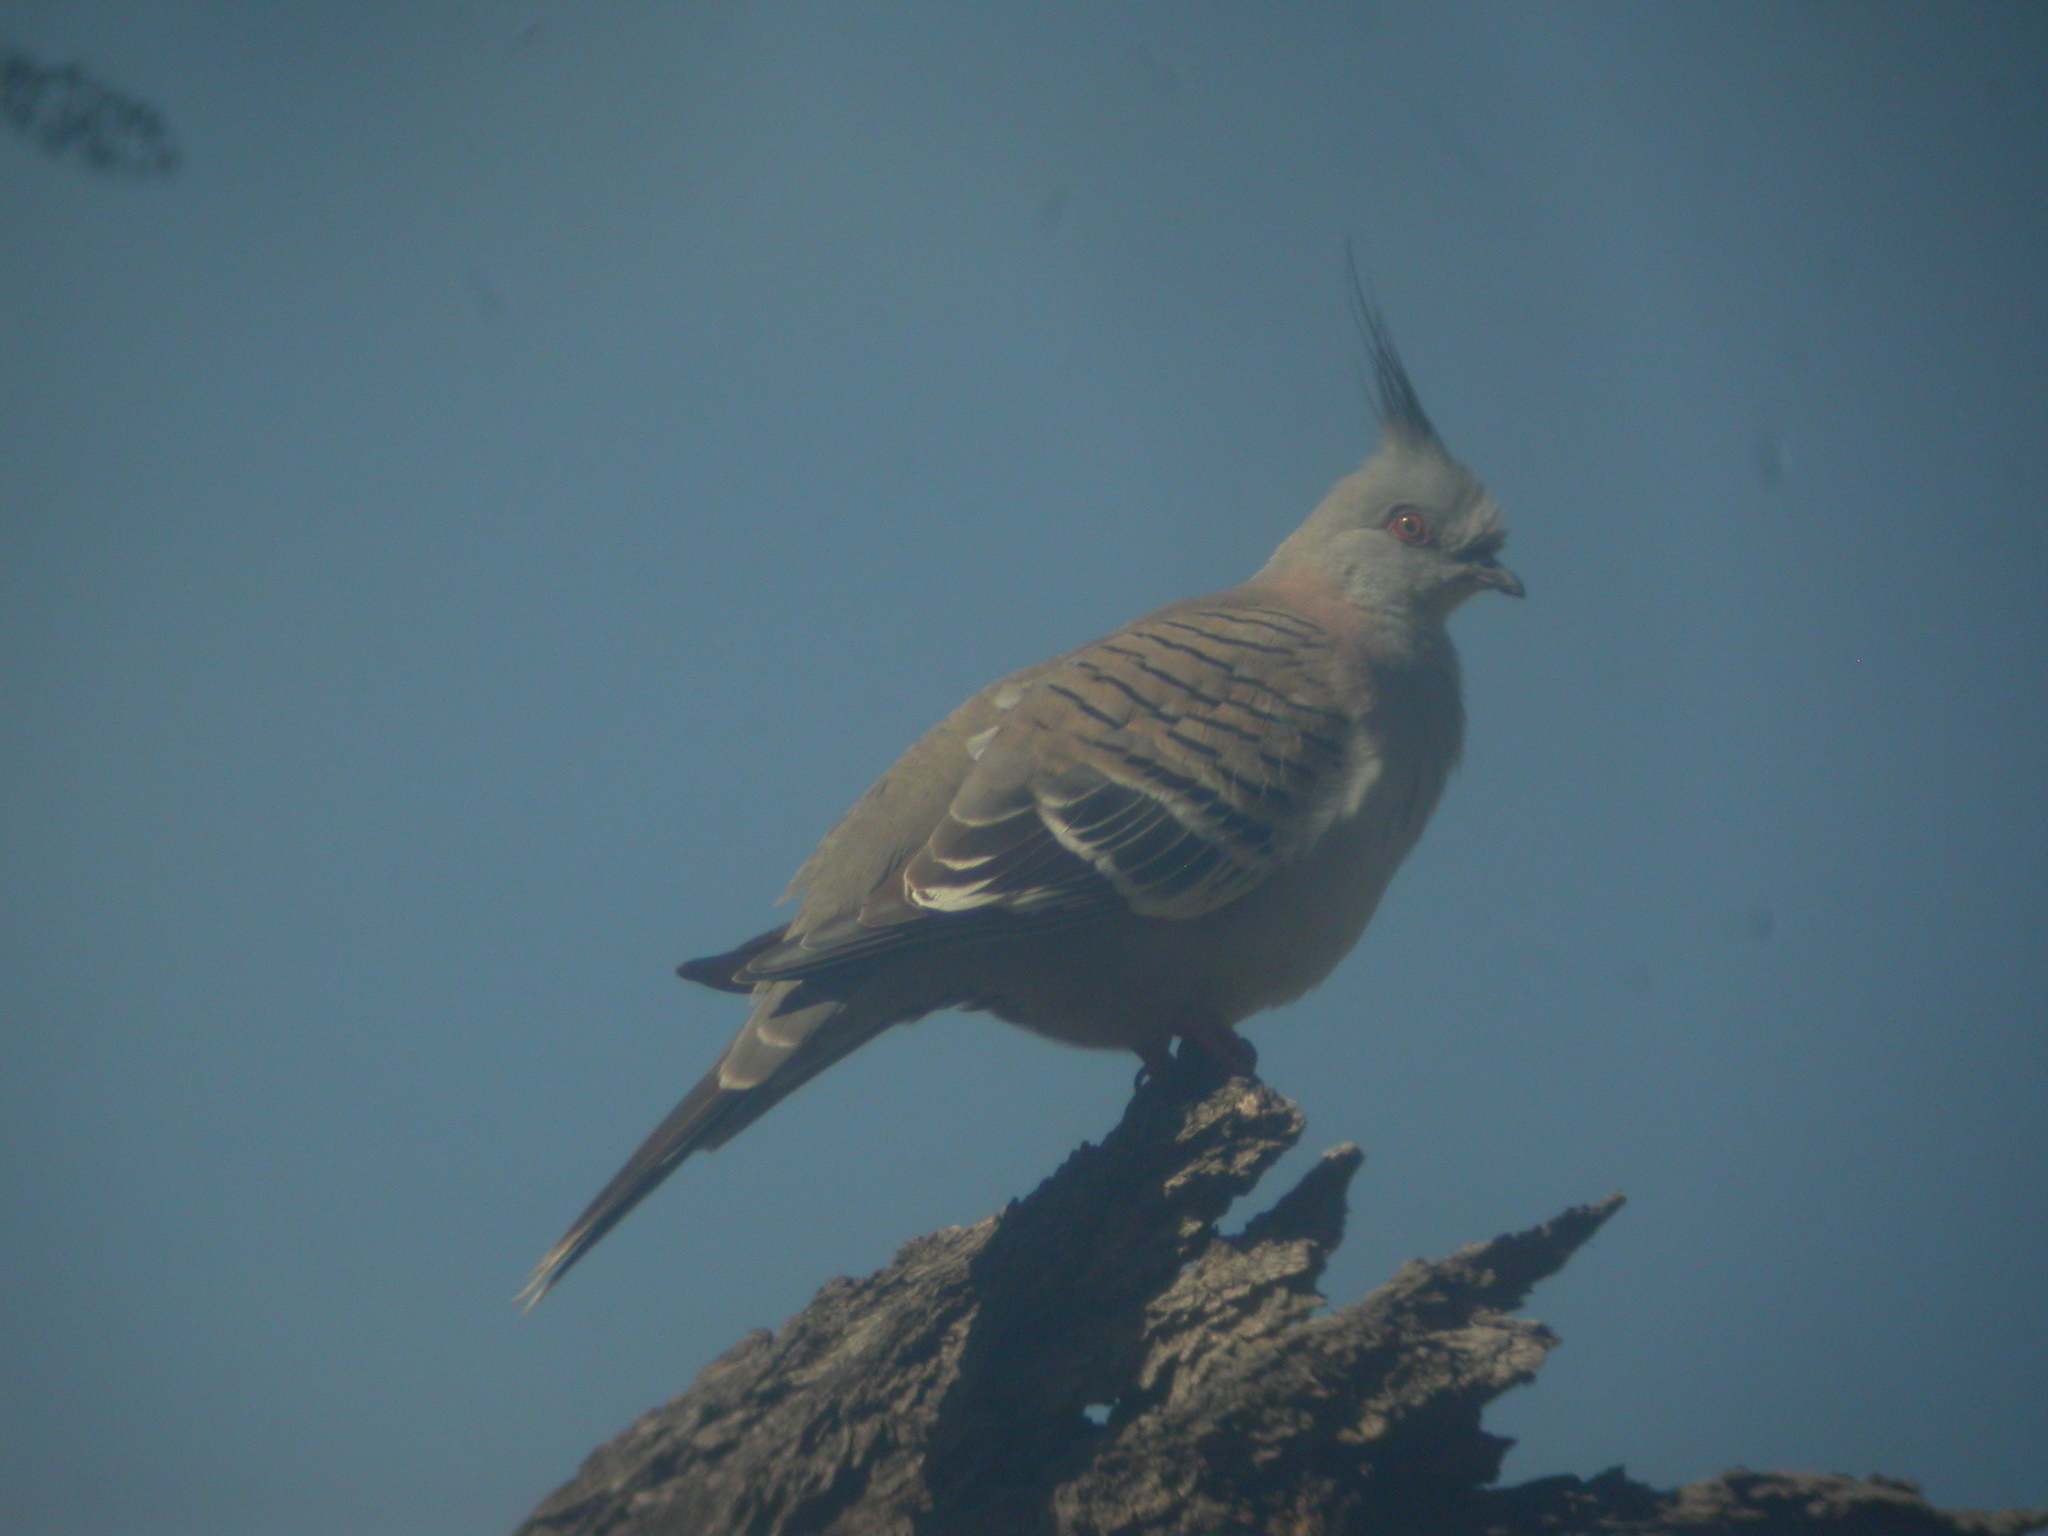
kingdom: Animalia
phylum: Chordata
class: Aves
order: Columbiformes
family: Columbidae
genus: Ocyphaps
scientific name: Ocyphaps lophotes
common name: Crested pigeon
